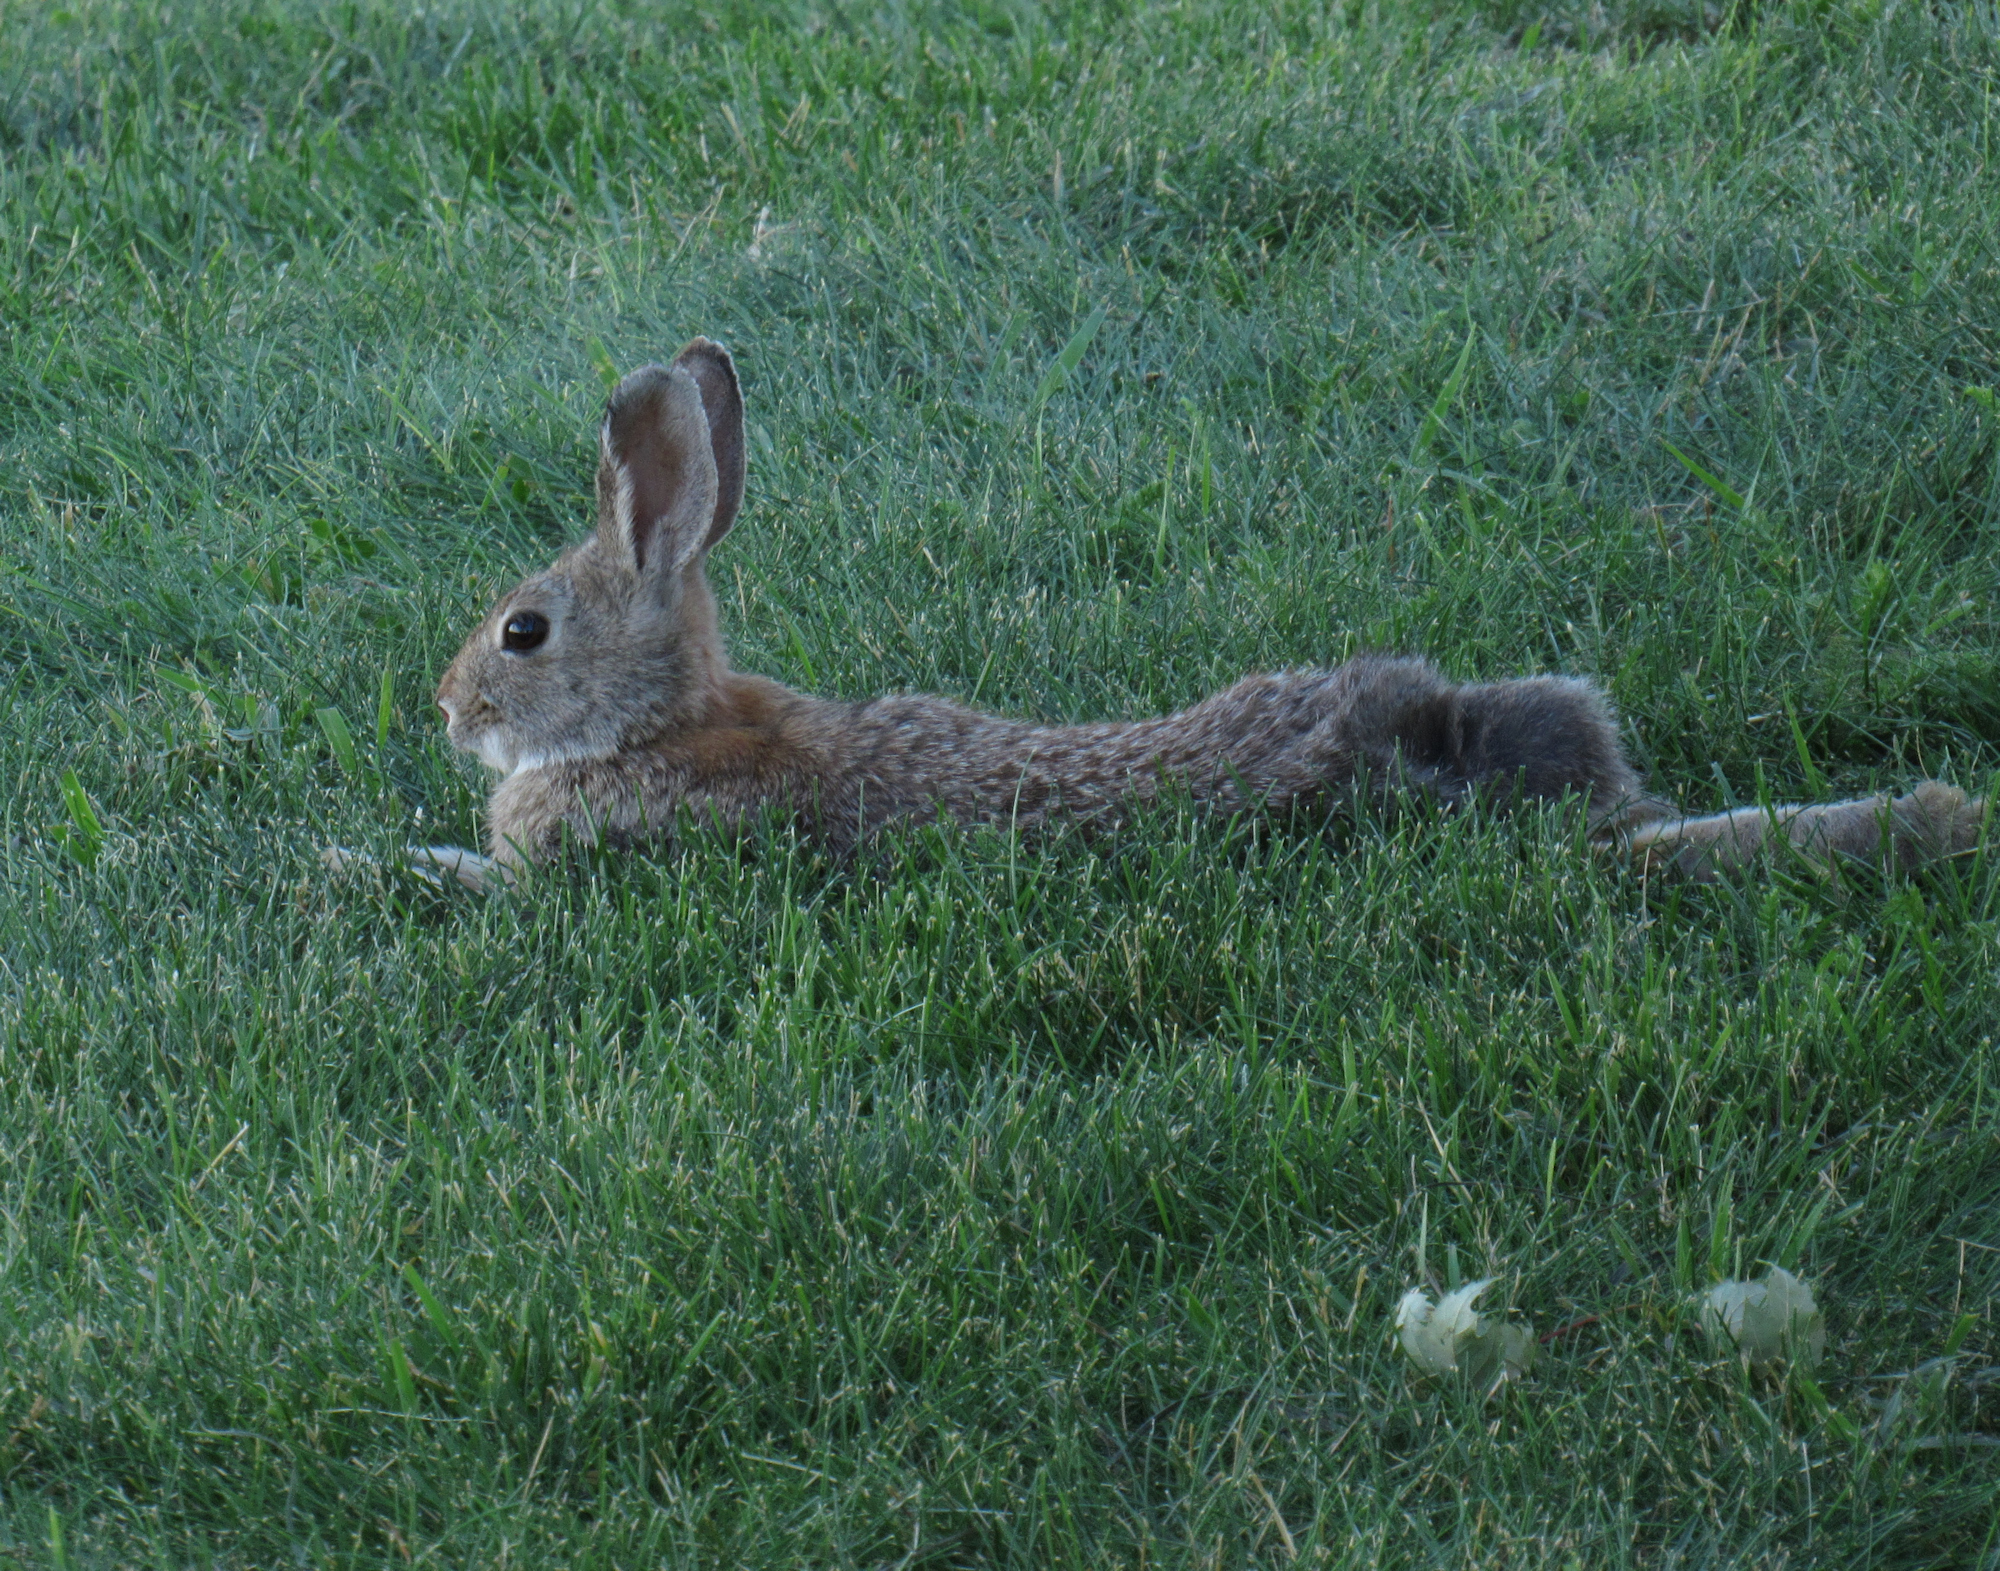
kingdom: Animalia
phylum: Chordata
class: Mammalia
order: Lagomorpha
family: Leporidae
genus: Sylvilagus
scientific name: Sylvilagus nuttallii
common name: Mountain cottontail
